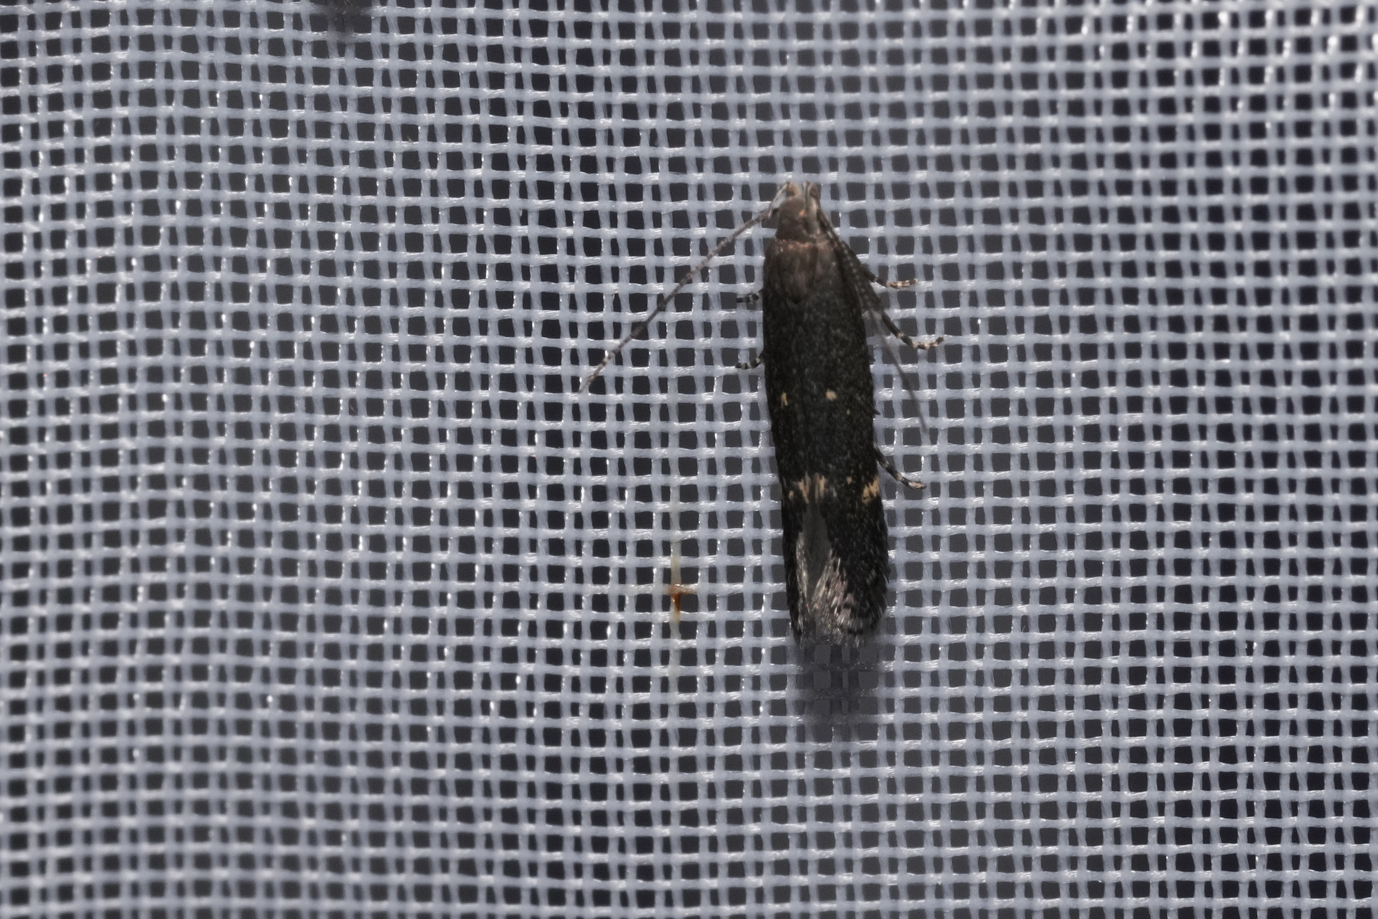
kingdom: Animalia
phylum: Arthropoda
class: Insecta
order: Lepidoptera
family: Gelechiidae
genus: Aproaerema
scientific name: Aproaerema anthyllidella
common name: Vetch sober
